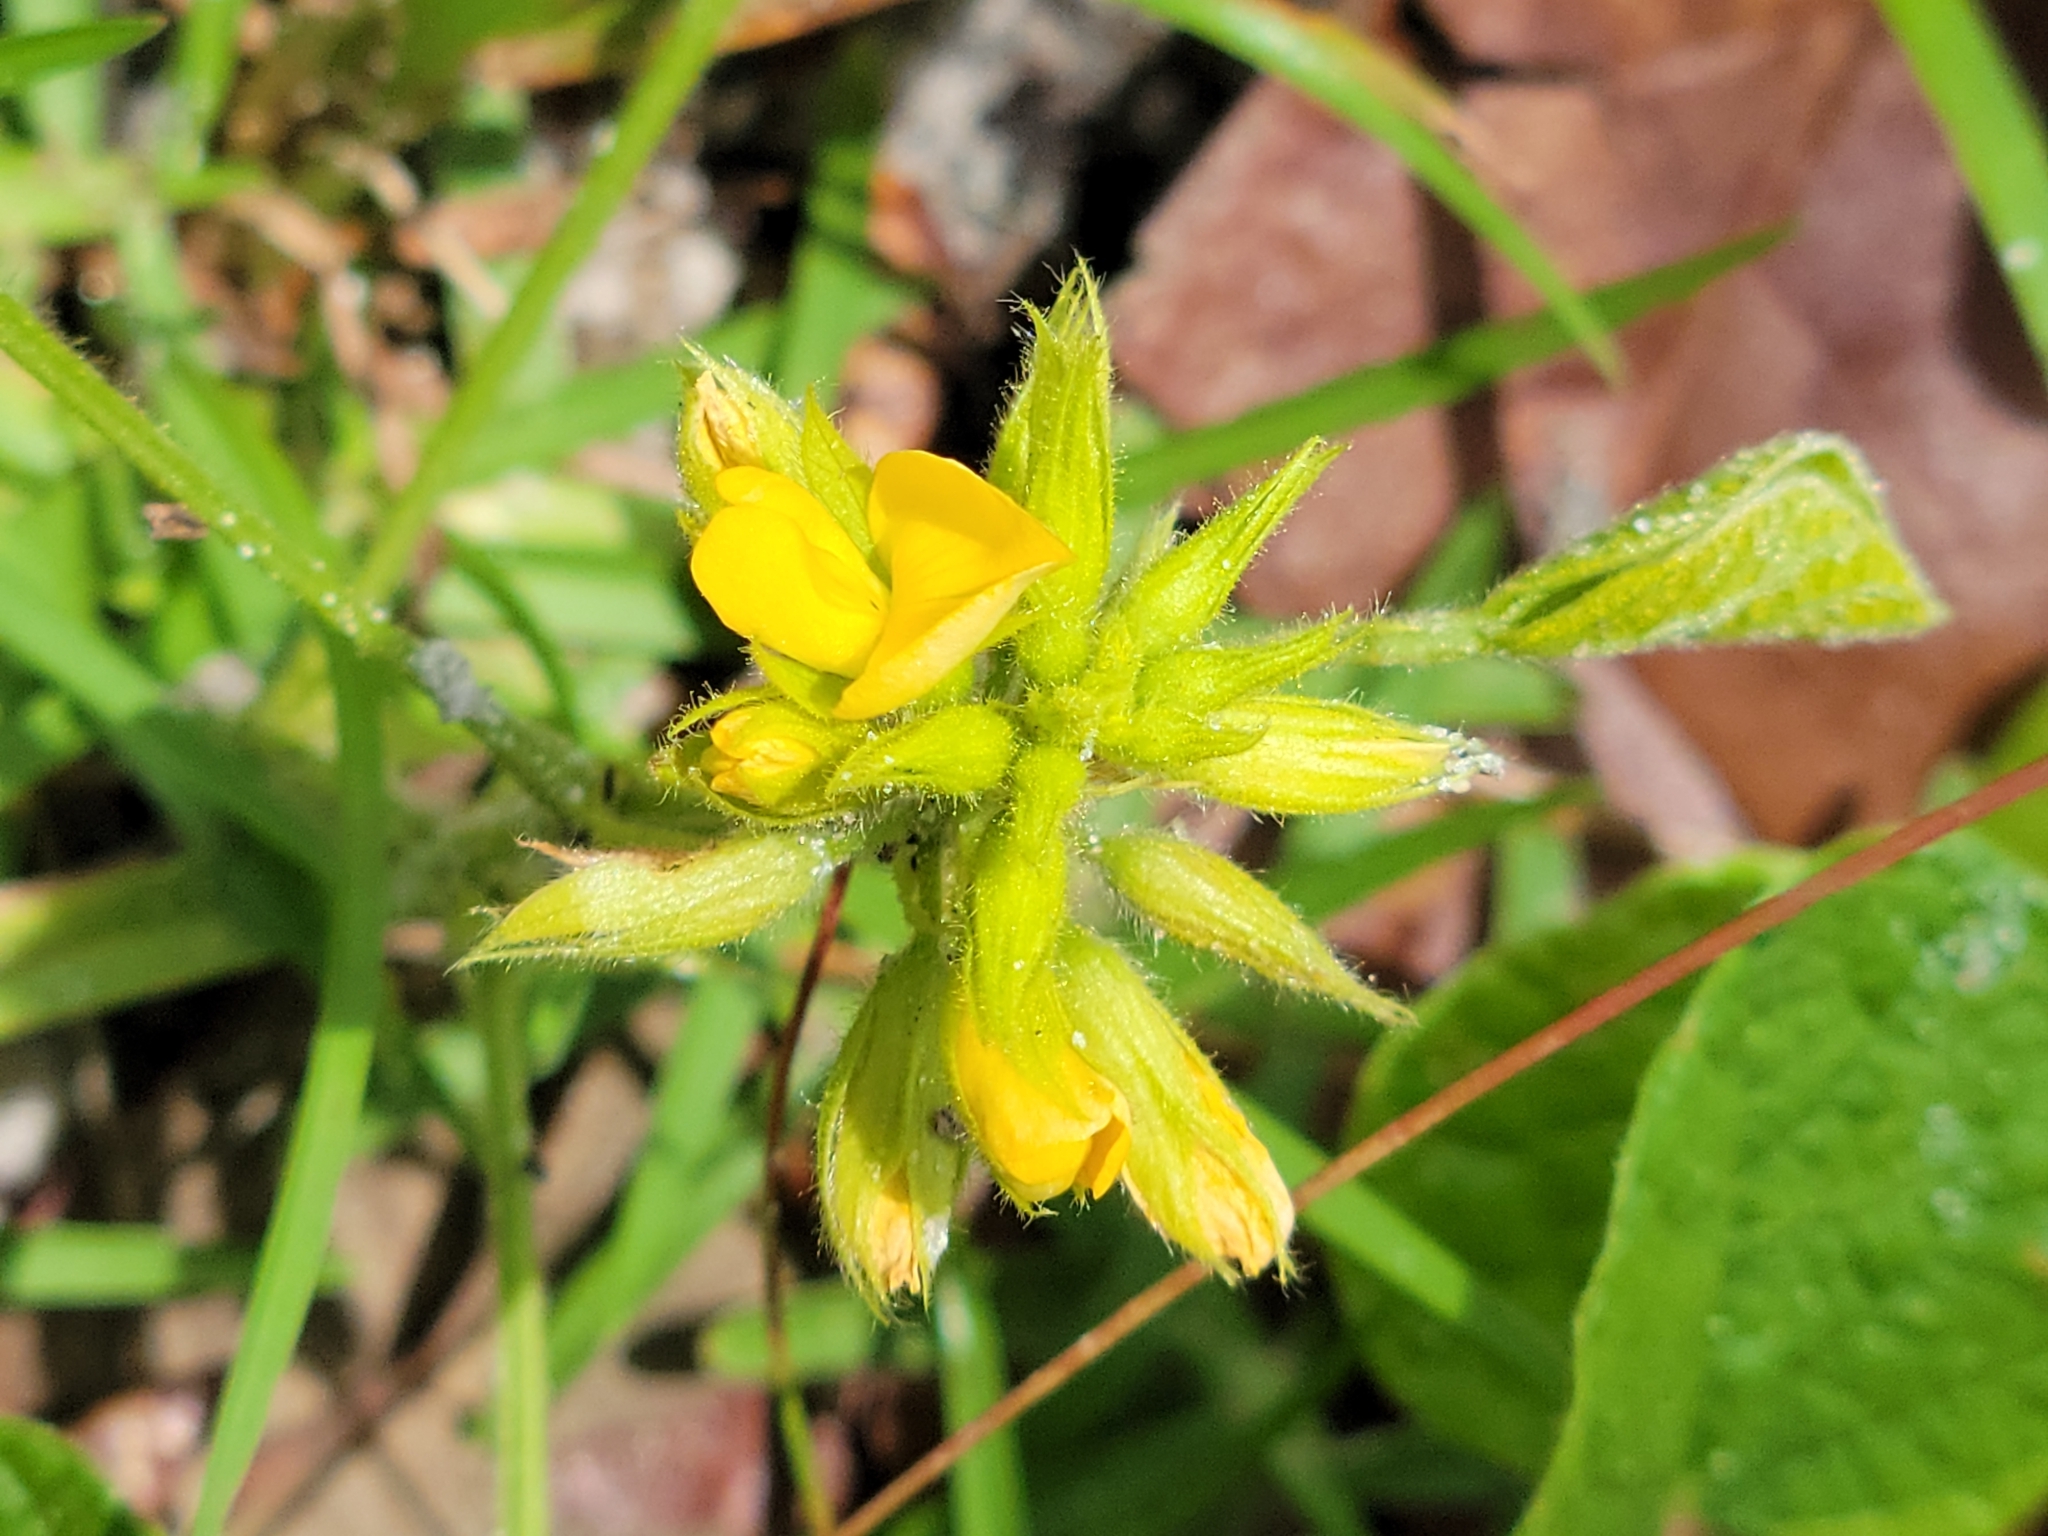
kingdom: Plantae
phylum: Tracheophyta
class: Magnoliopsida
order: Fabales
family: Fabaceae
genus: Rhynchosia
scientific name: Rhynchosia reniformis
